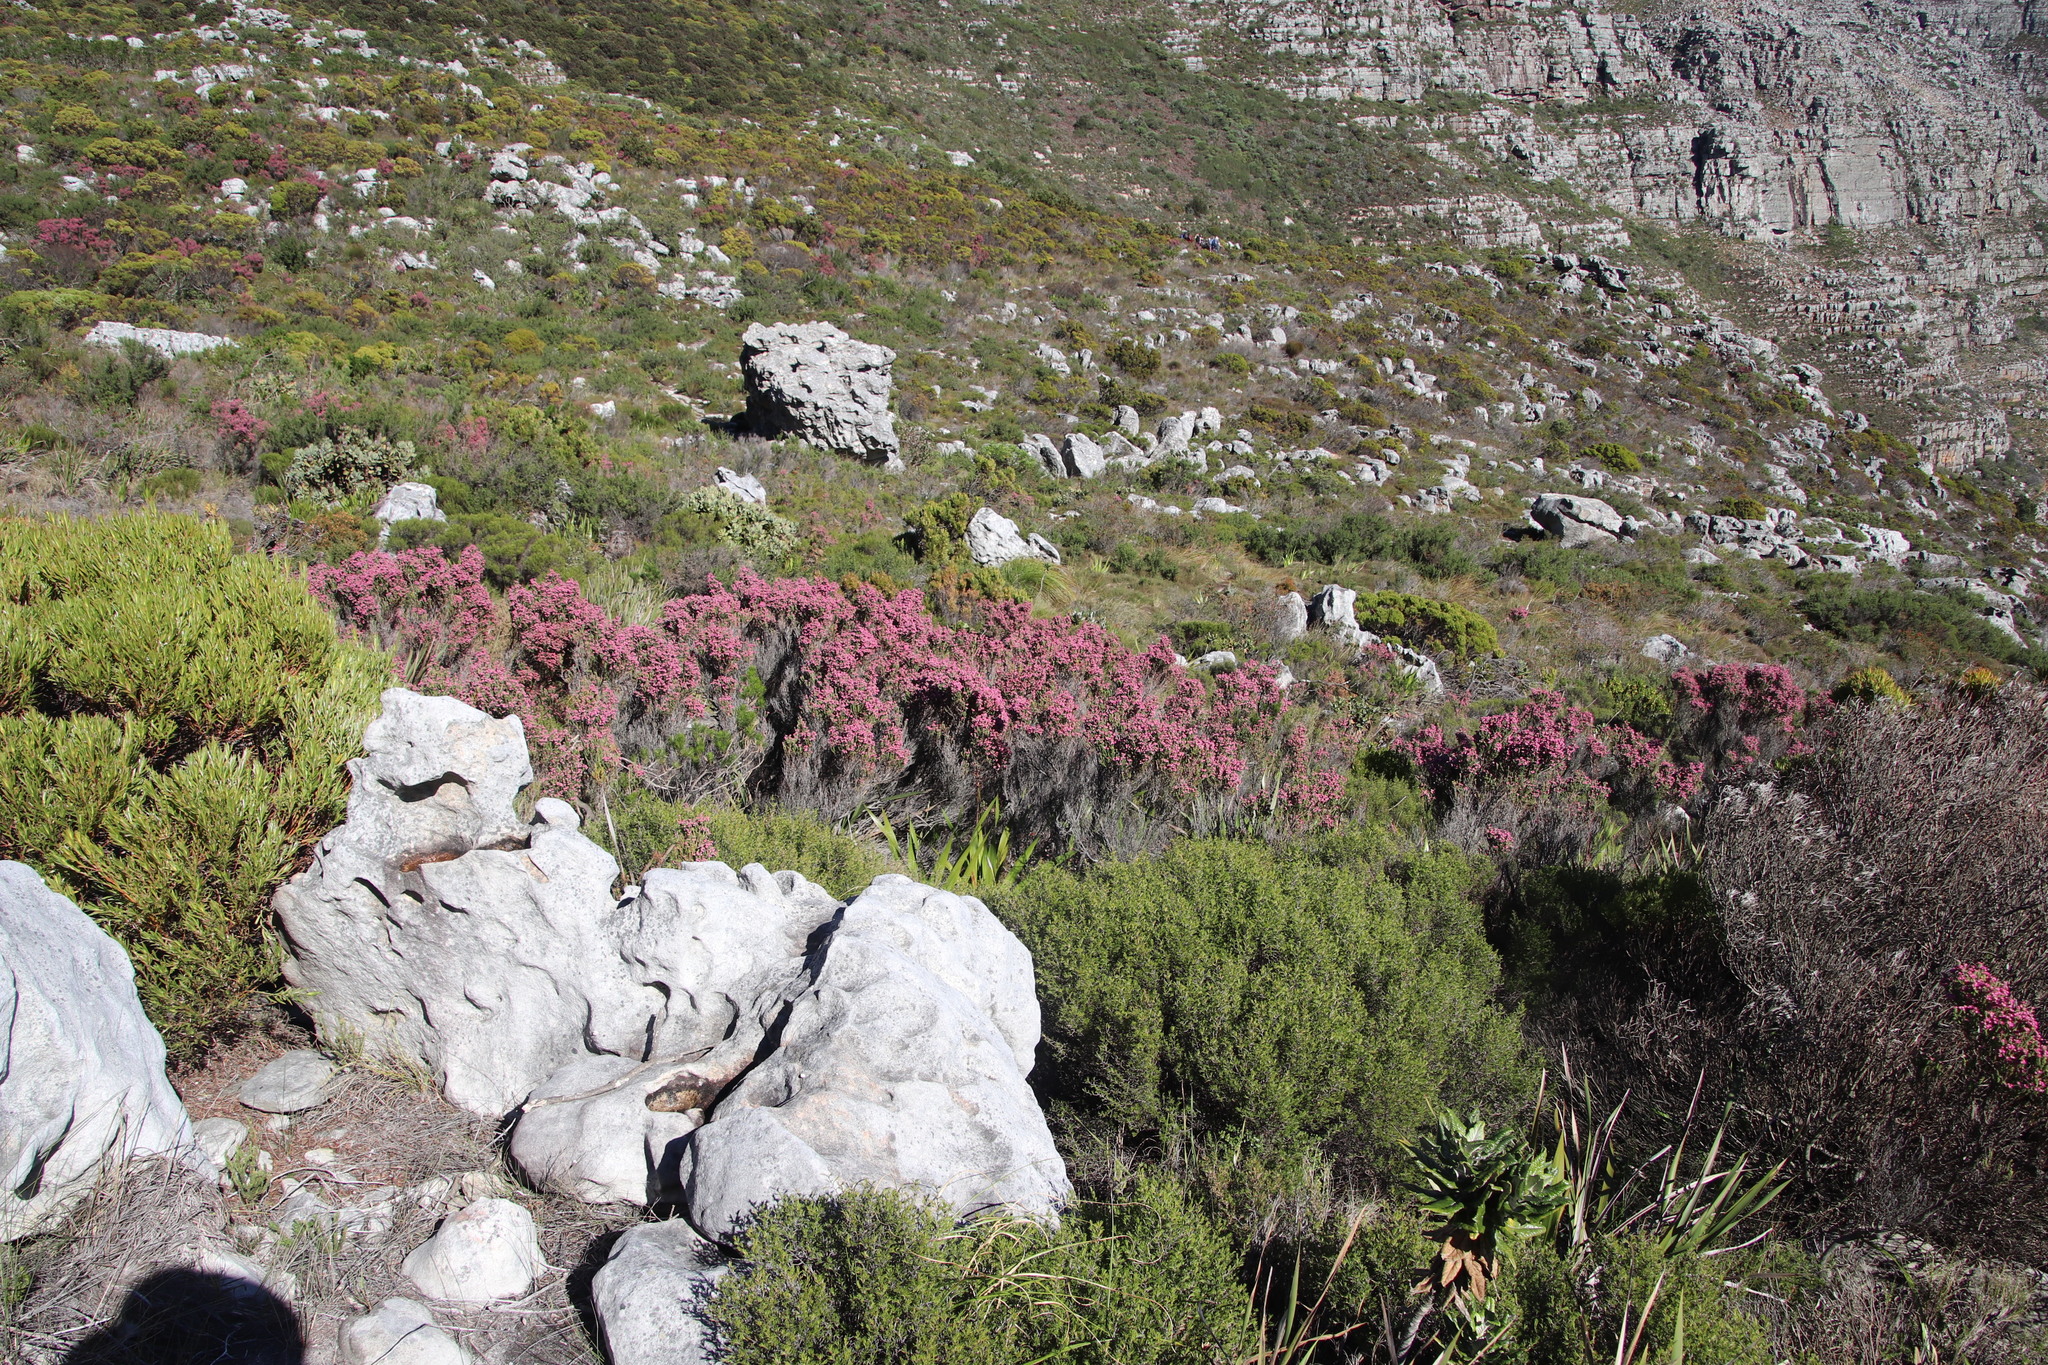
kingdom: Plantae
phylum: Tracheophyta
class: Magnoliopsida
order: Ericales
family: Ericaceae
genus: Erica
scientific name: Erica baccans
